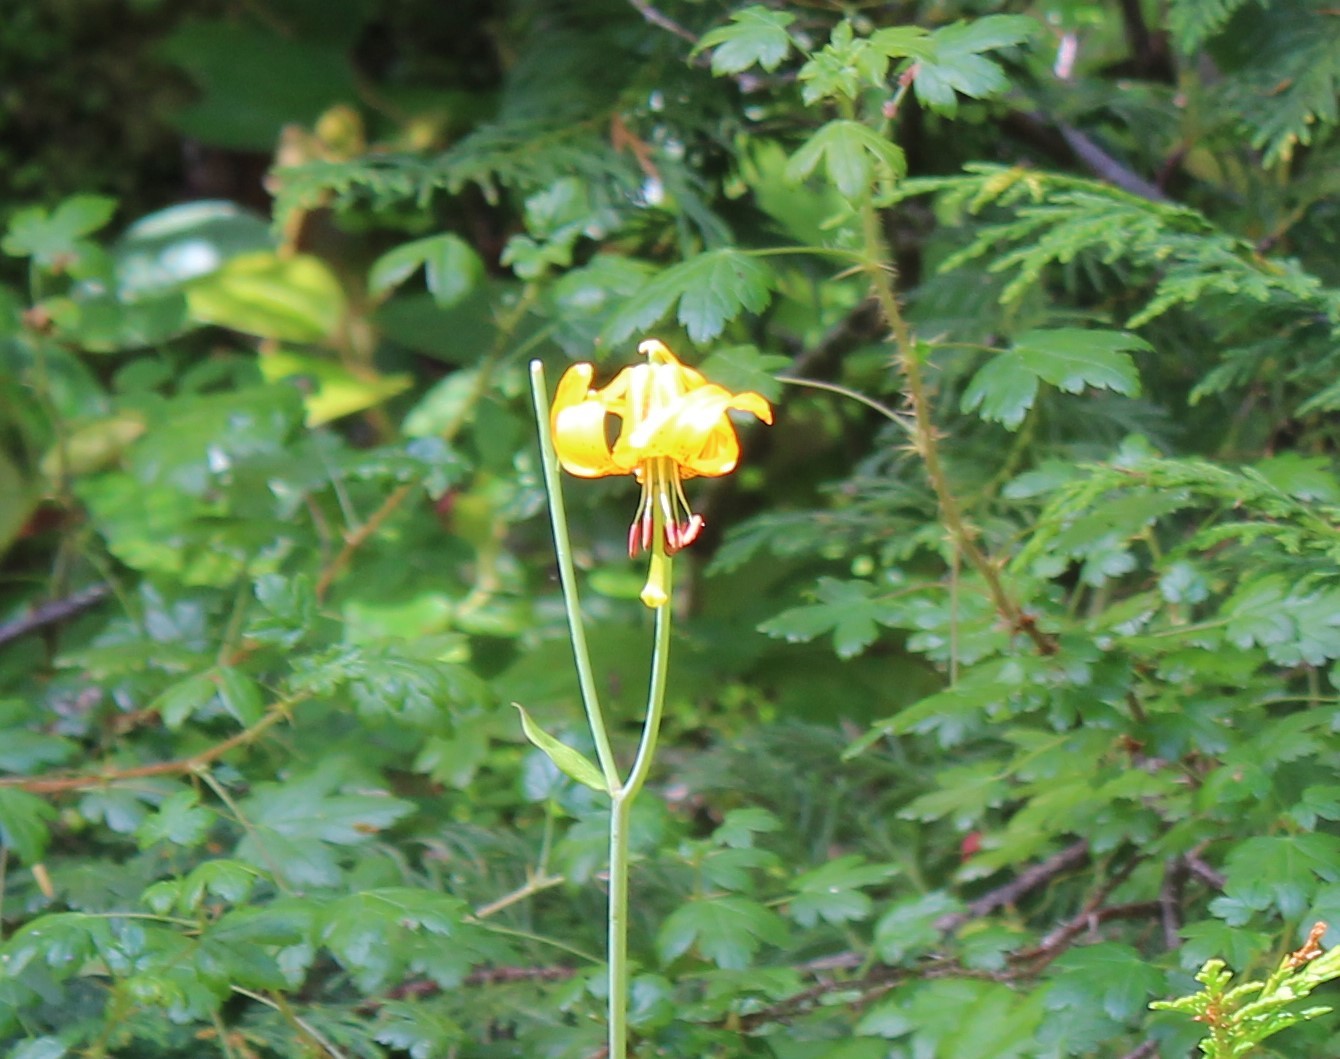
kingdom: Plantae
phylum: Tracheophyta
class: Liliopsida
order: Liliales
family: Liliaceae
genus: Lilium
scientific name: Lilium columbianum
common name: Columbia lily
